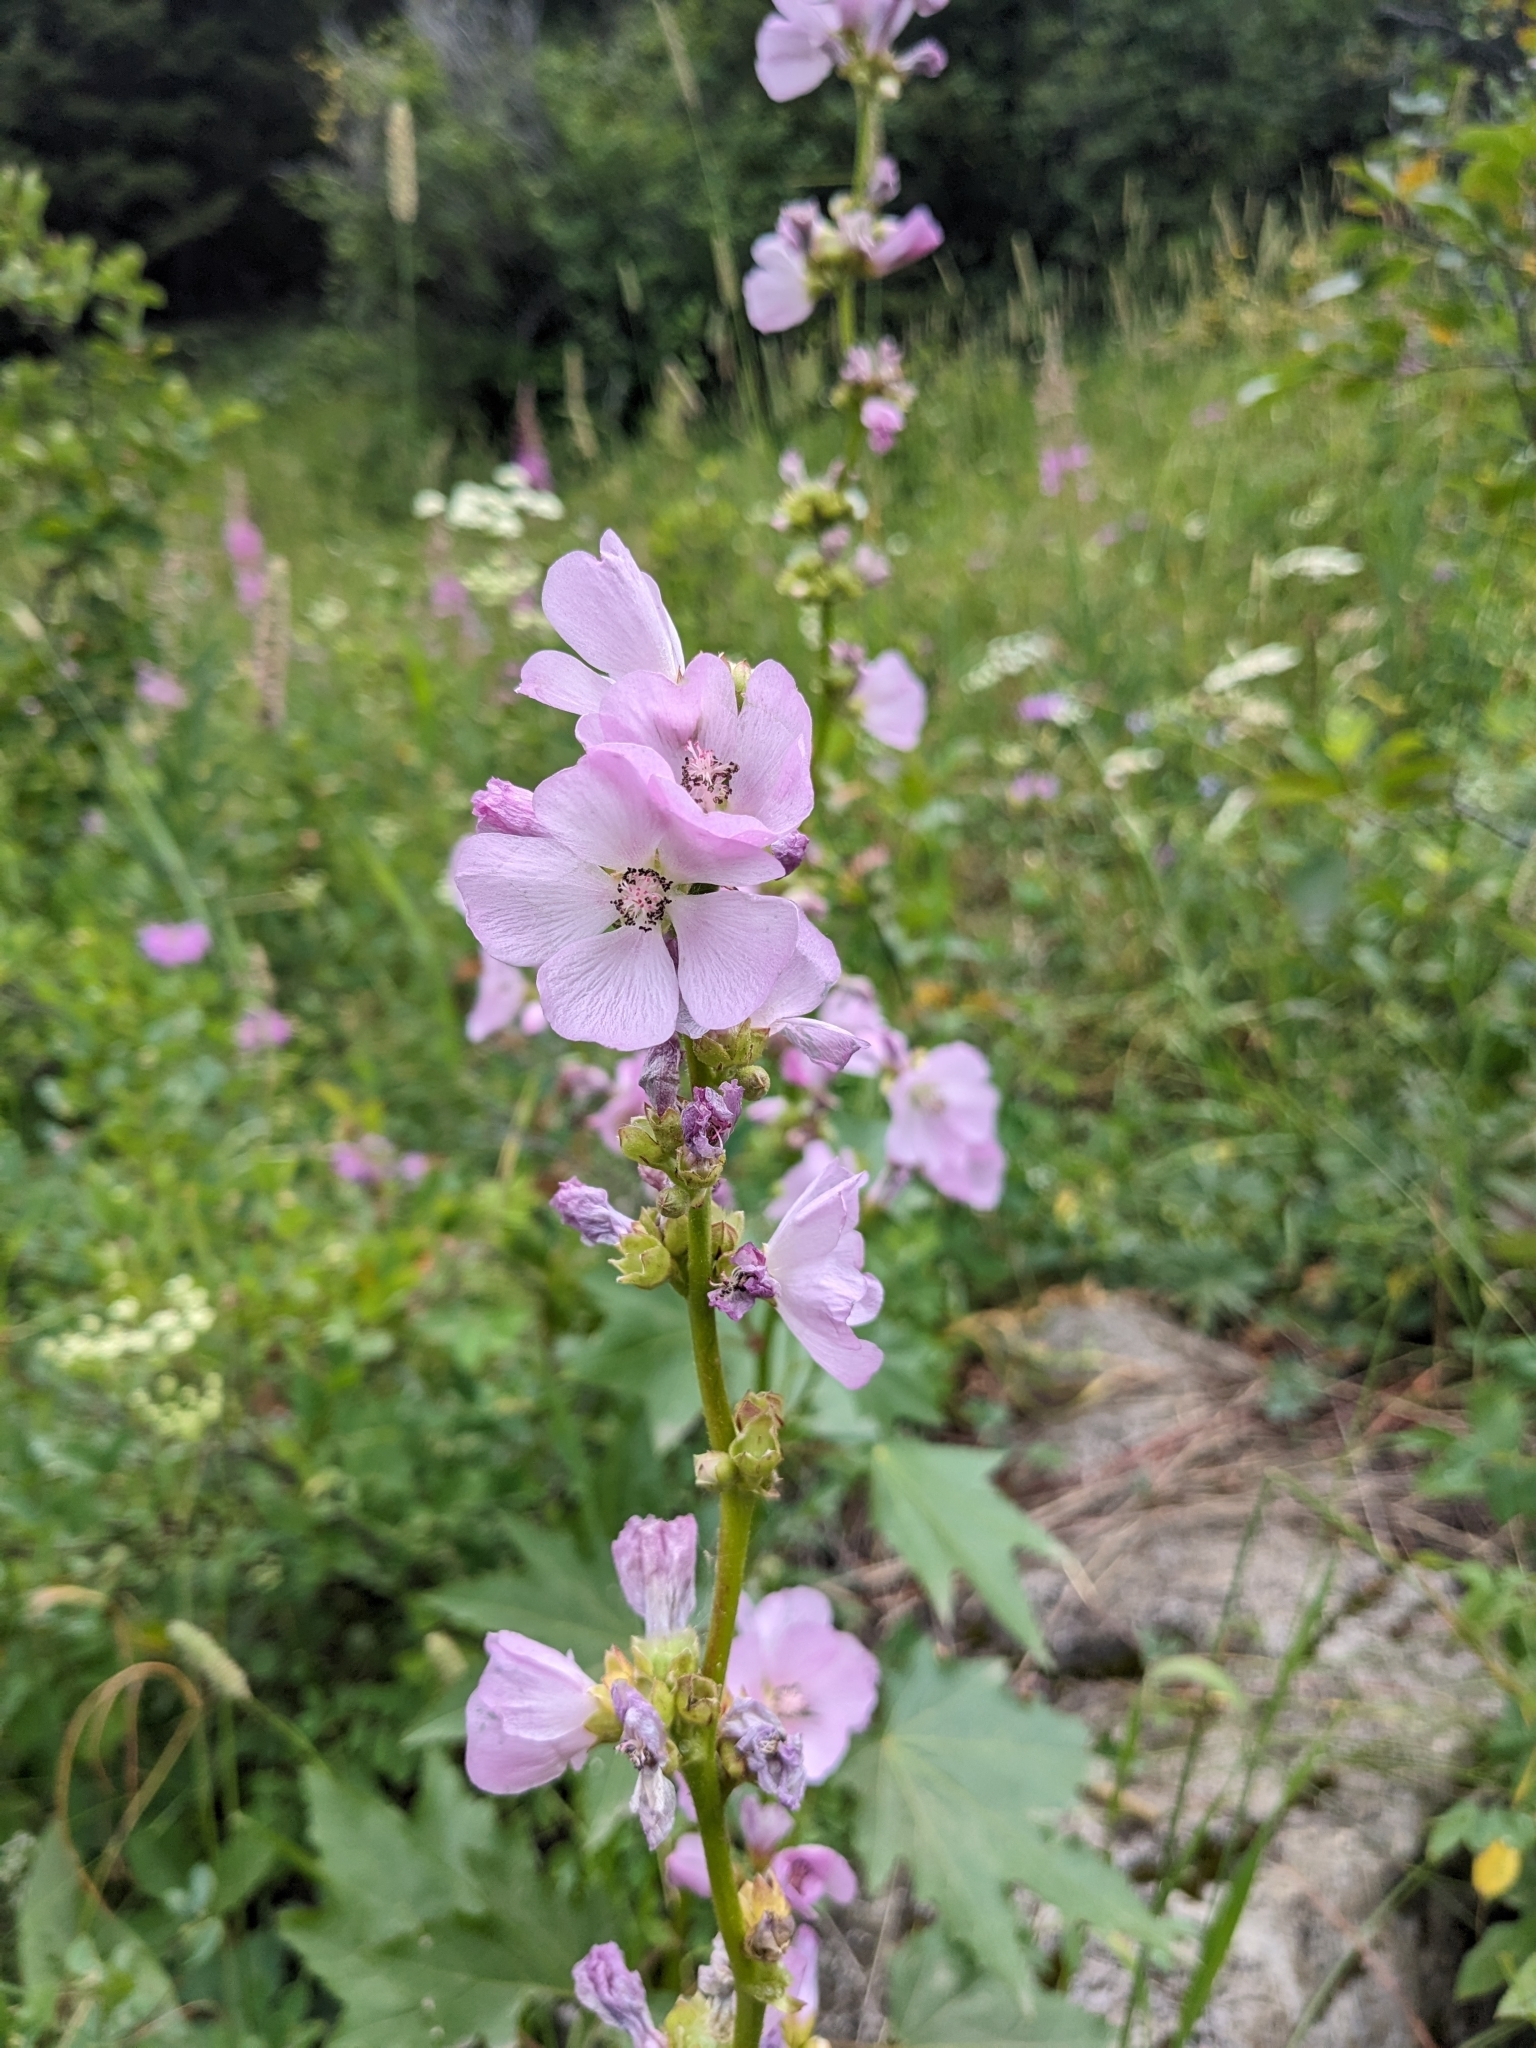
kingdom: Plantae
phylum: Tracheophyta
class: Magnoliopsida
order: Malvales
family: Malvaceae
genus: Iliamna
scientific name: Iliamna rivularis
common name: Wild hollyhock
